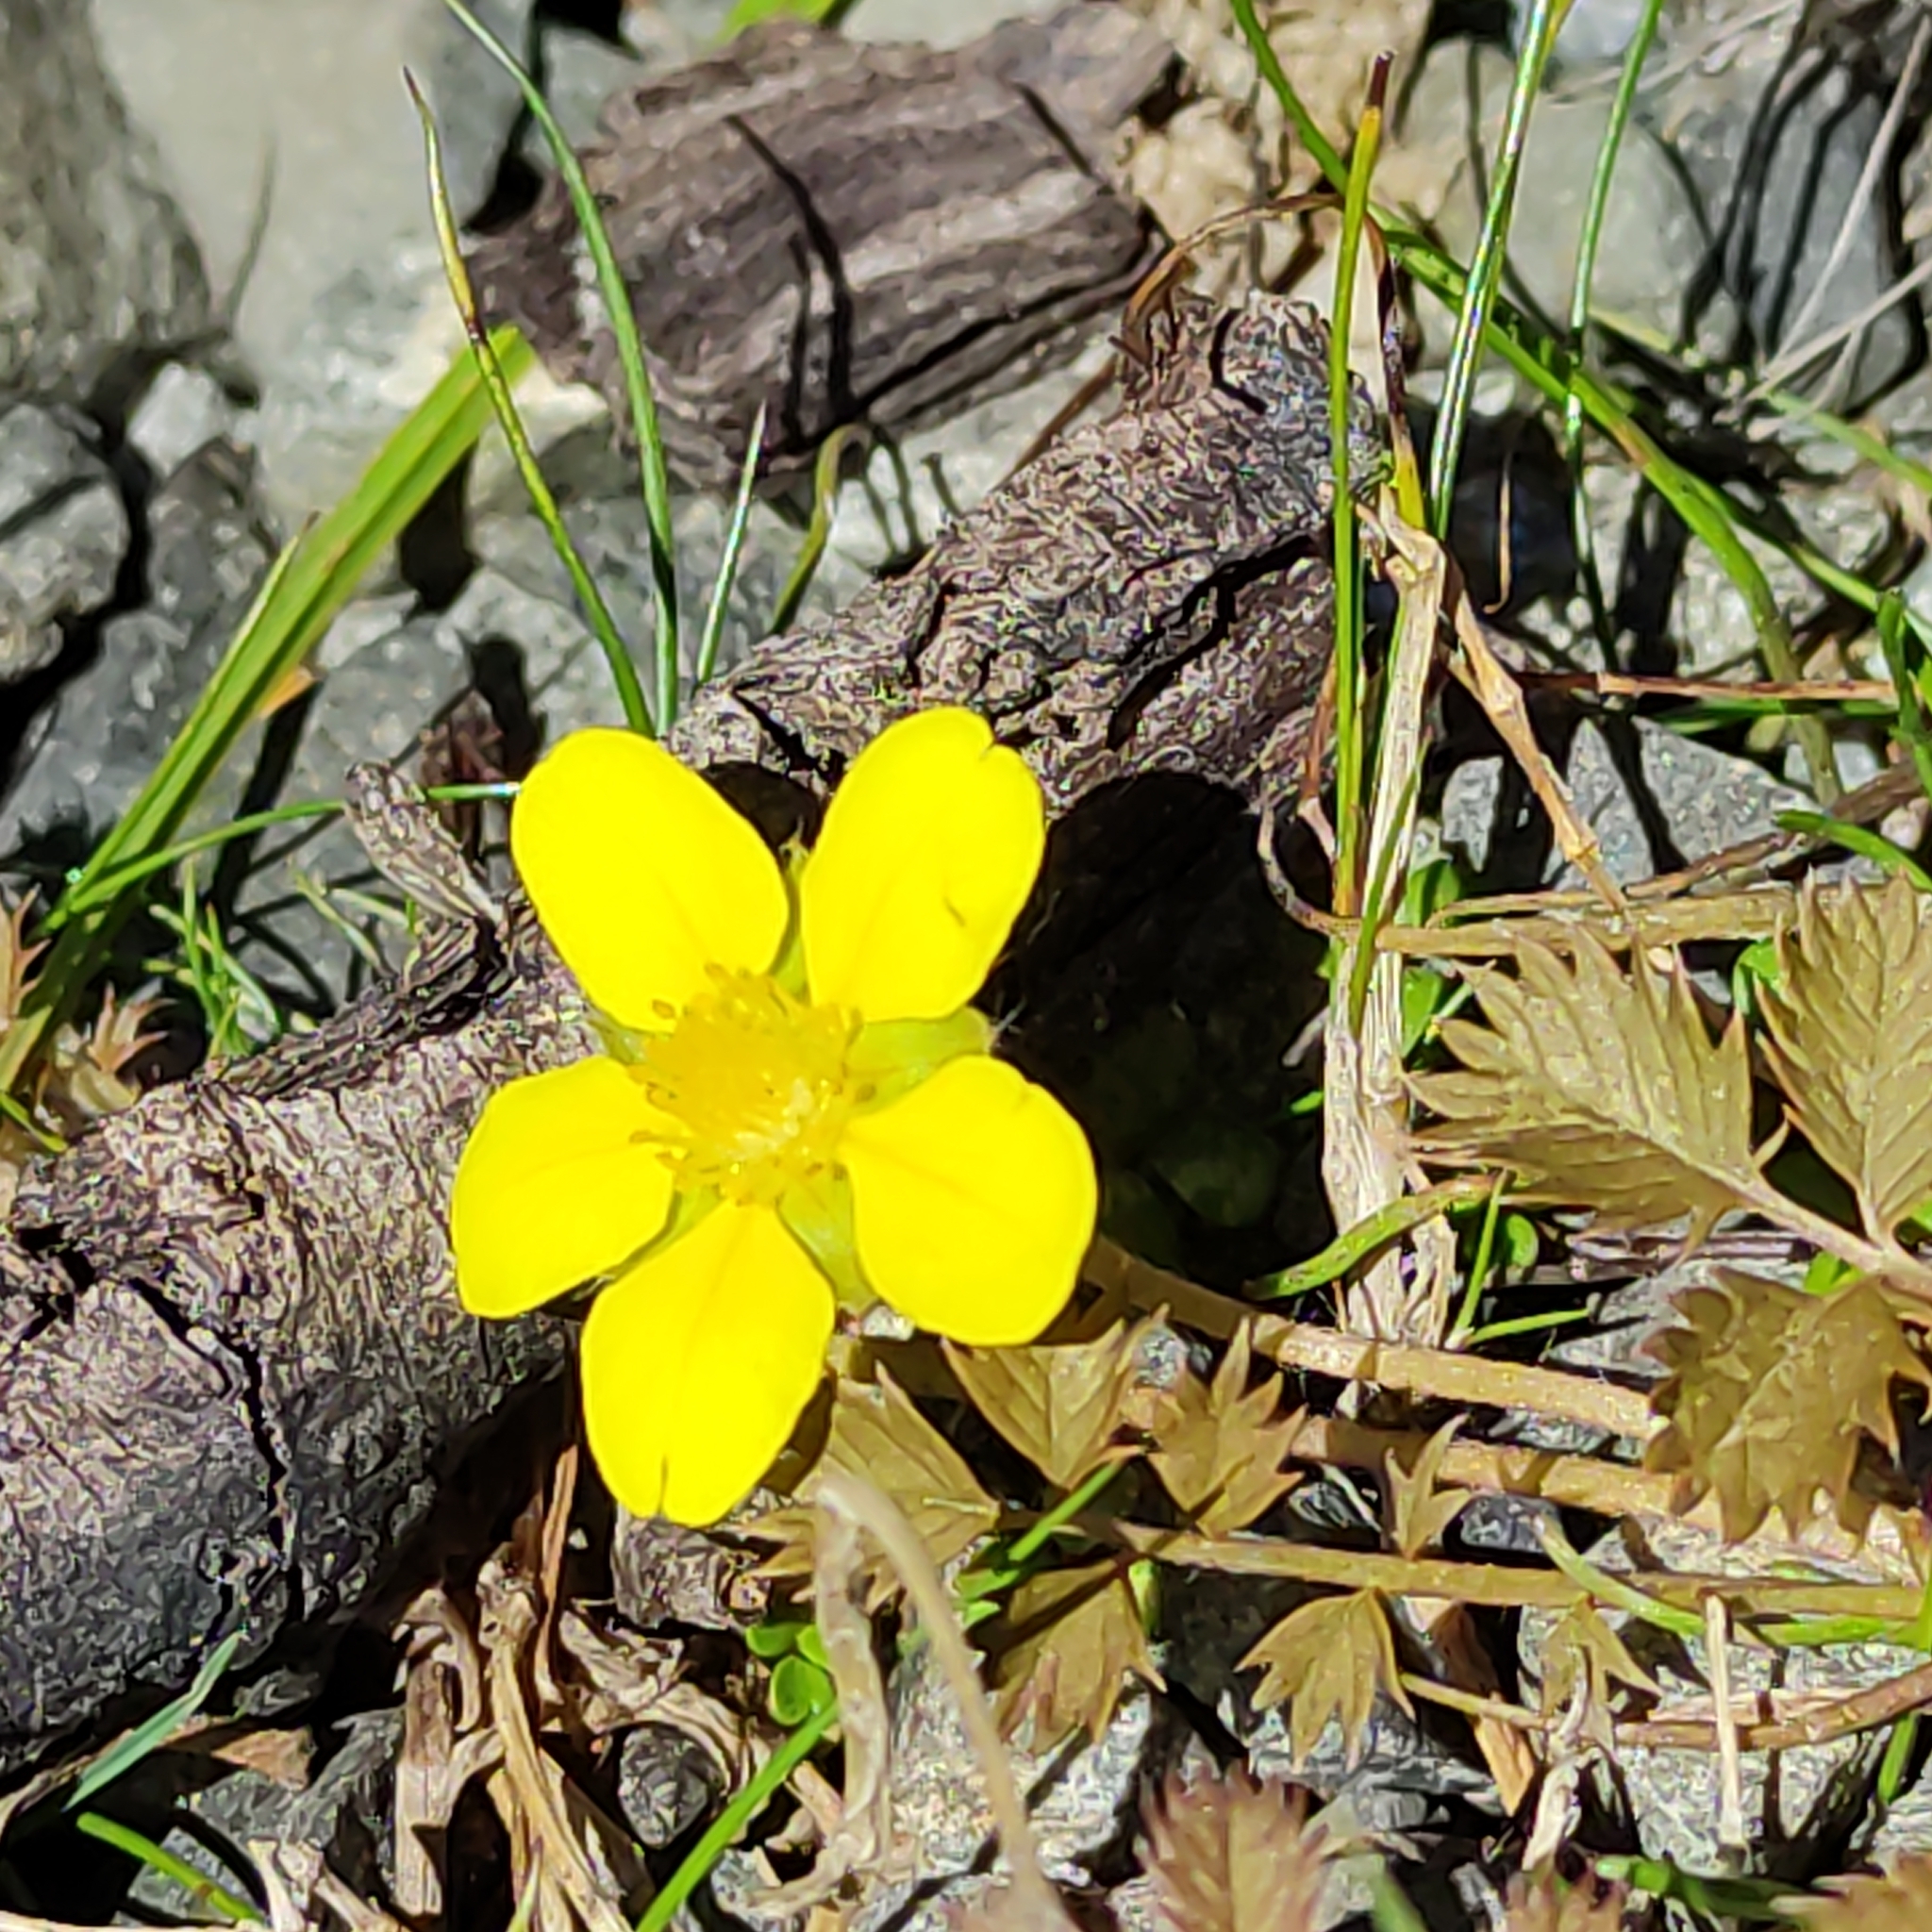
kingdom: Plantae
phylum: Tracheophyta
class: Magnoliopsida
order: Rosales
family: Rosaceae
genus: Argentina
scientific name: Argentina anserinoides
